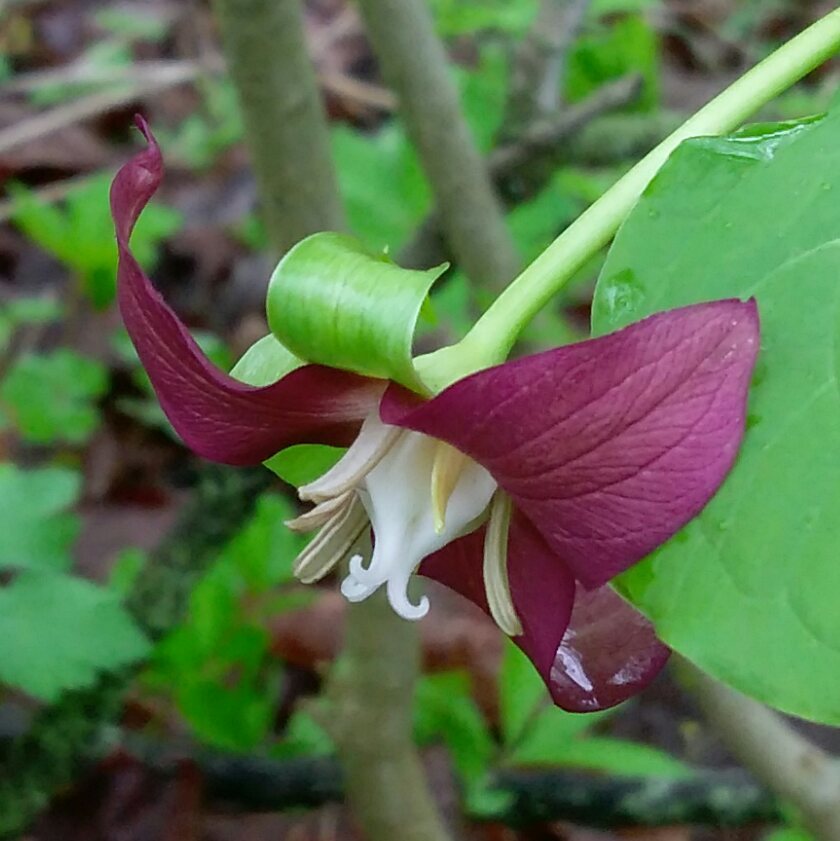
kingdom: Plantae
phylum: Tracheophyta
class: Liliopsida
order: Liliales
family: Melanthiaceae
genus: Trillium
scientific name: Trillium flexipes
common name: Drooping trillium
